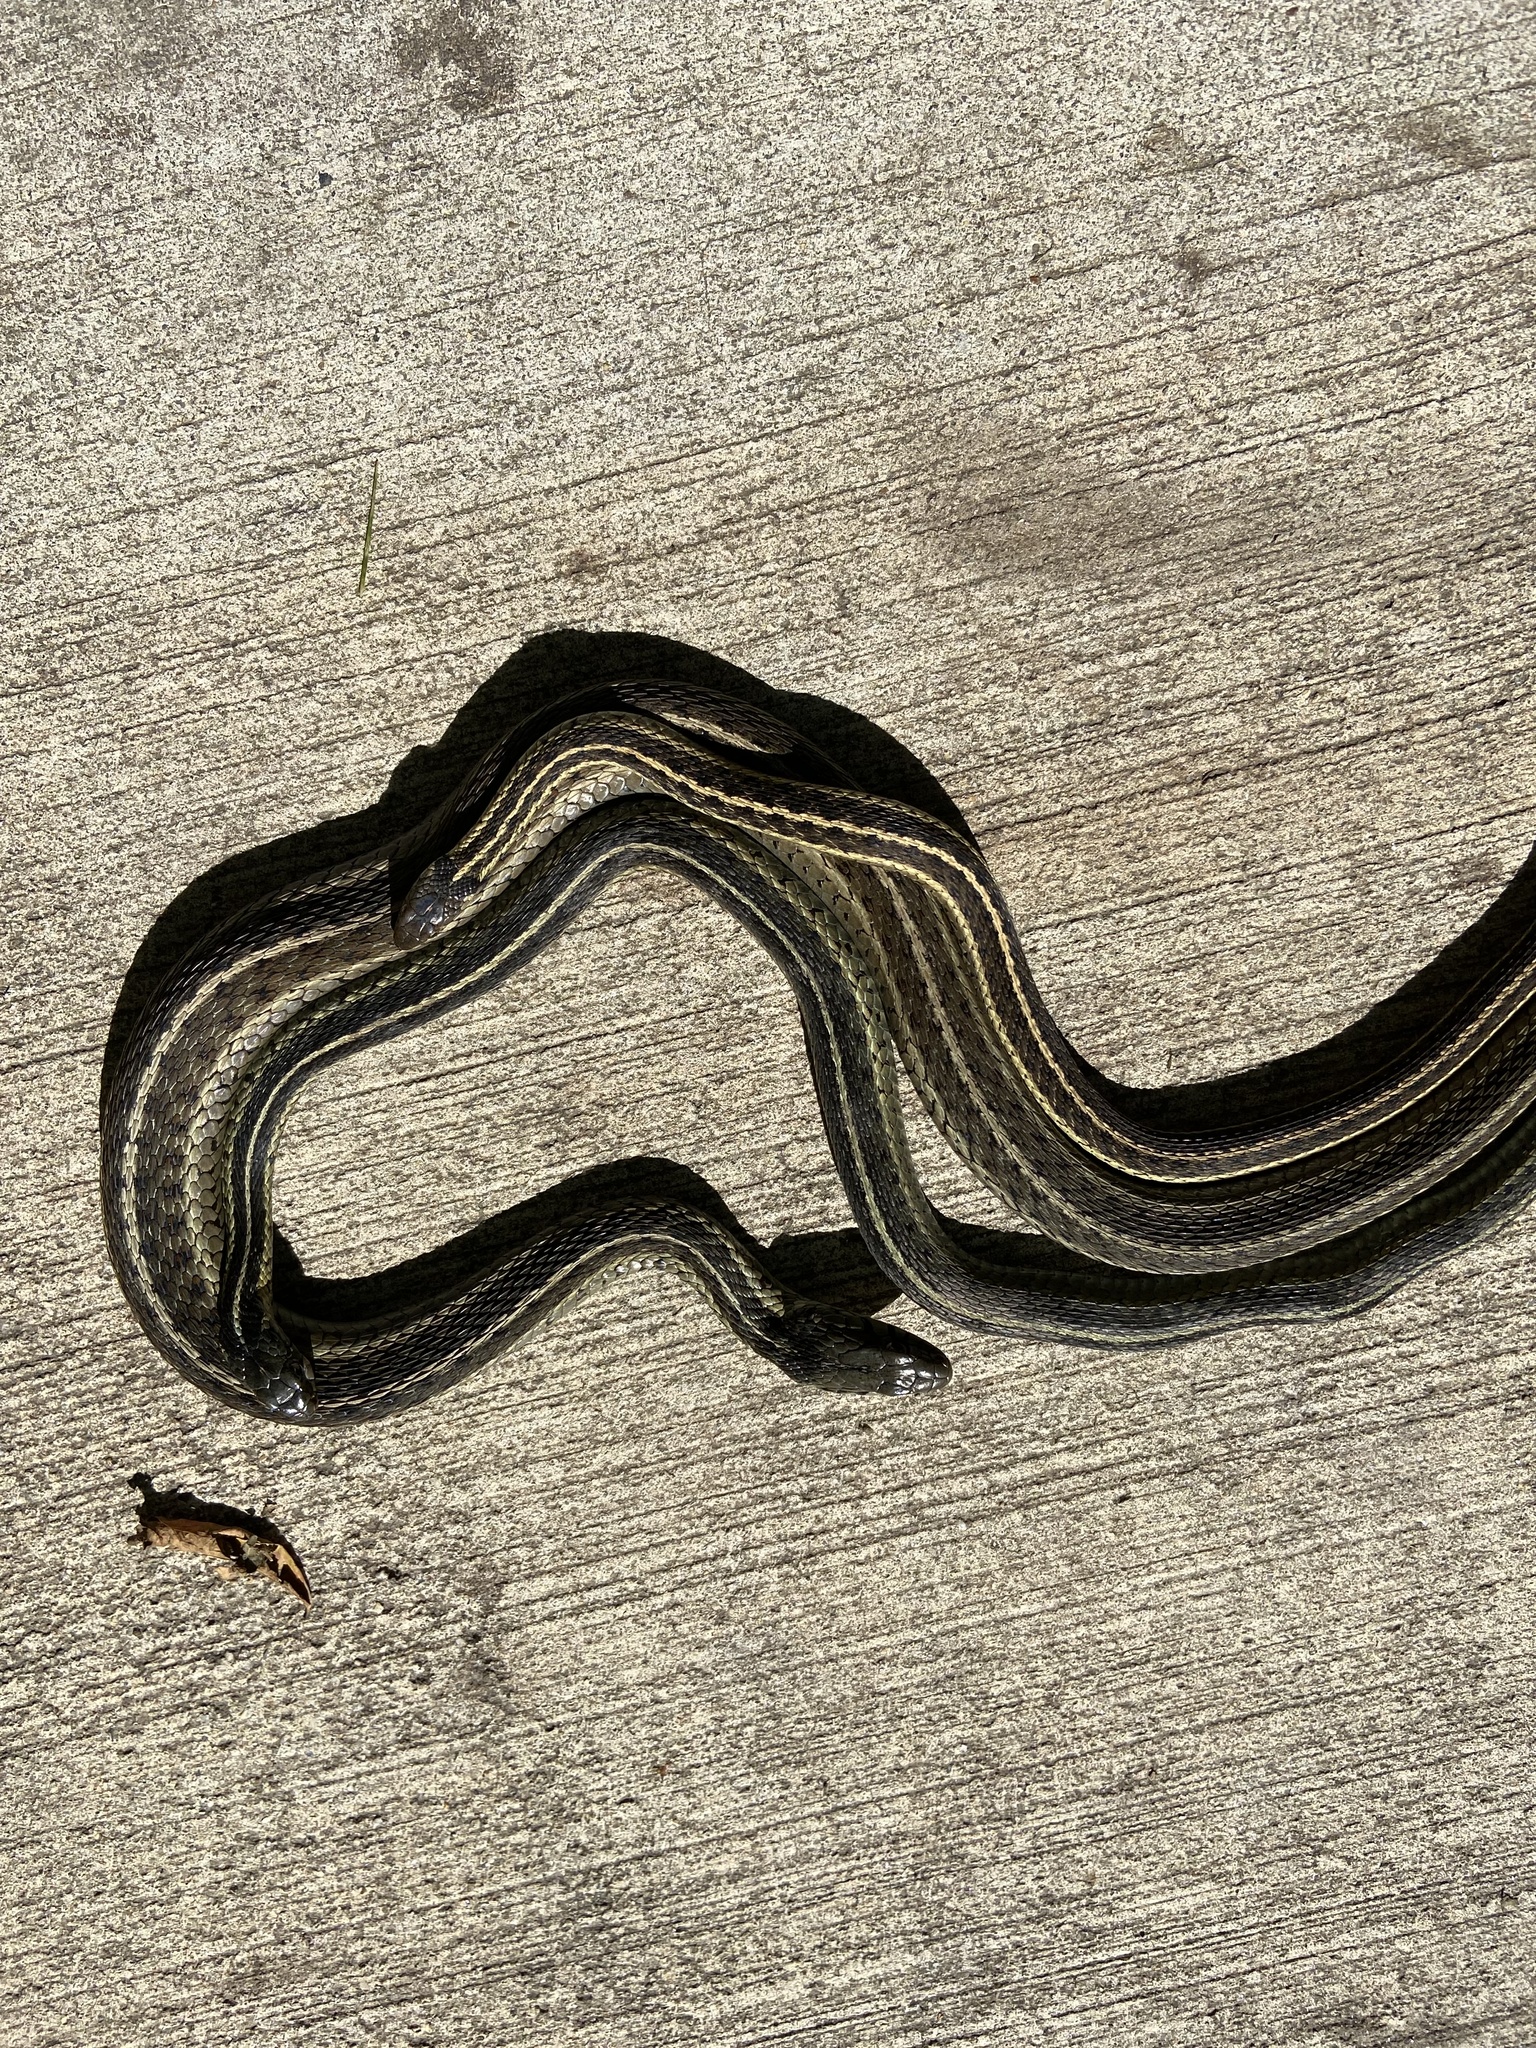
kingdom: Animalia
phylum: Chordata
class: Squamata
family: Colubridae
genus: Thamnophis
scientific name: Thamnophis sirtalis
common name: Common garter snake
